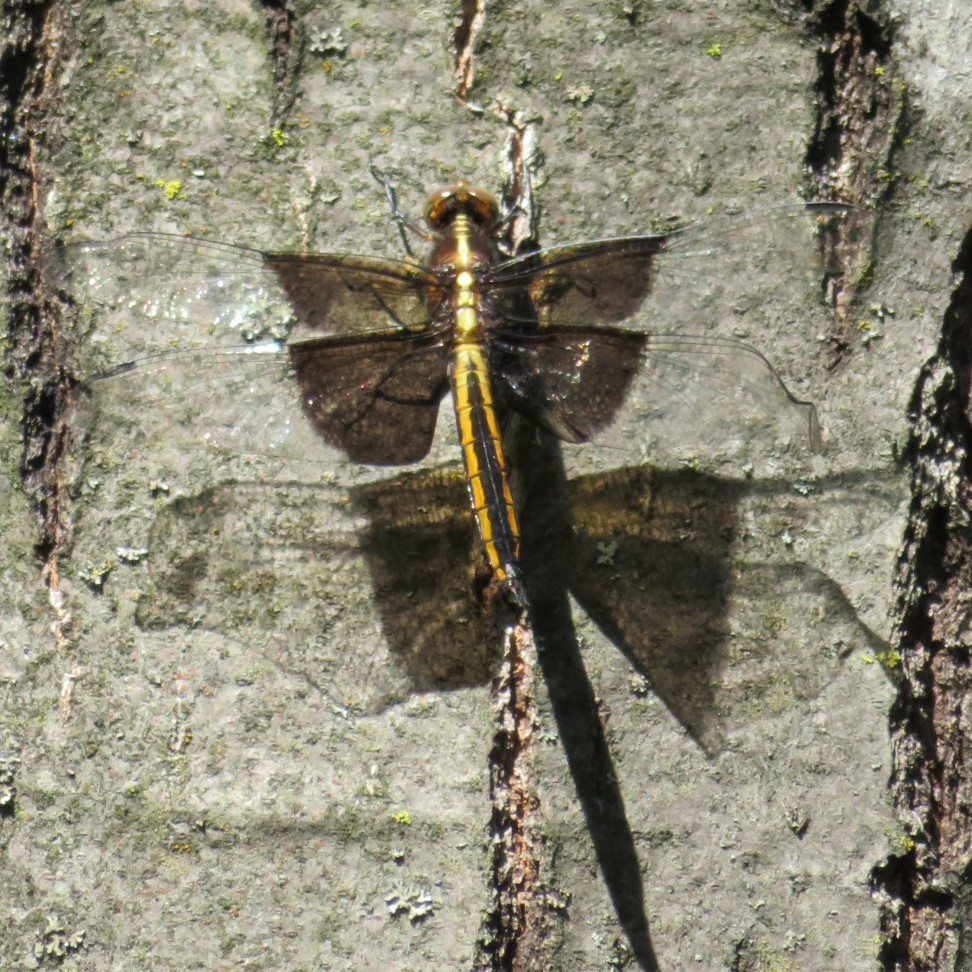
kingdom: Animalia
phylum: Arthropoda
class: Insecta
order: Odonata
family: Libellulidae
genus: Libellula
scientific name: Libellula luctuosa
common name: Widow skimmer
